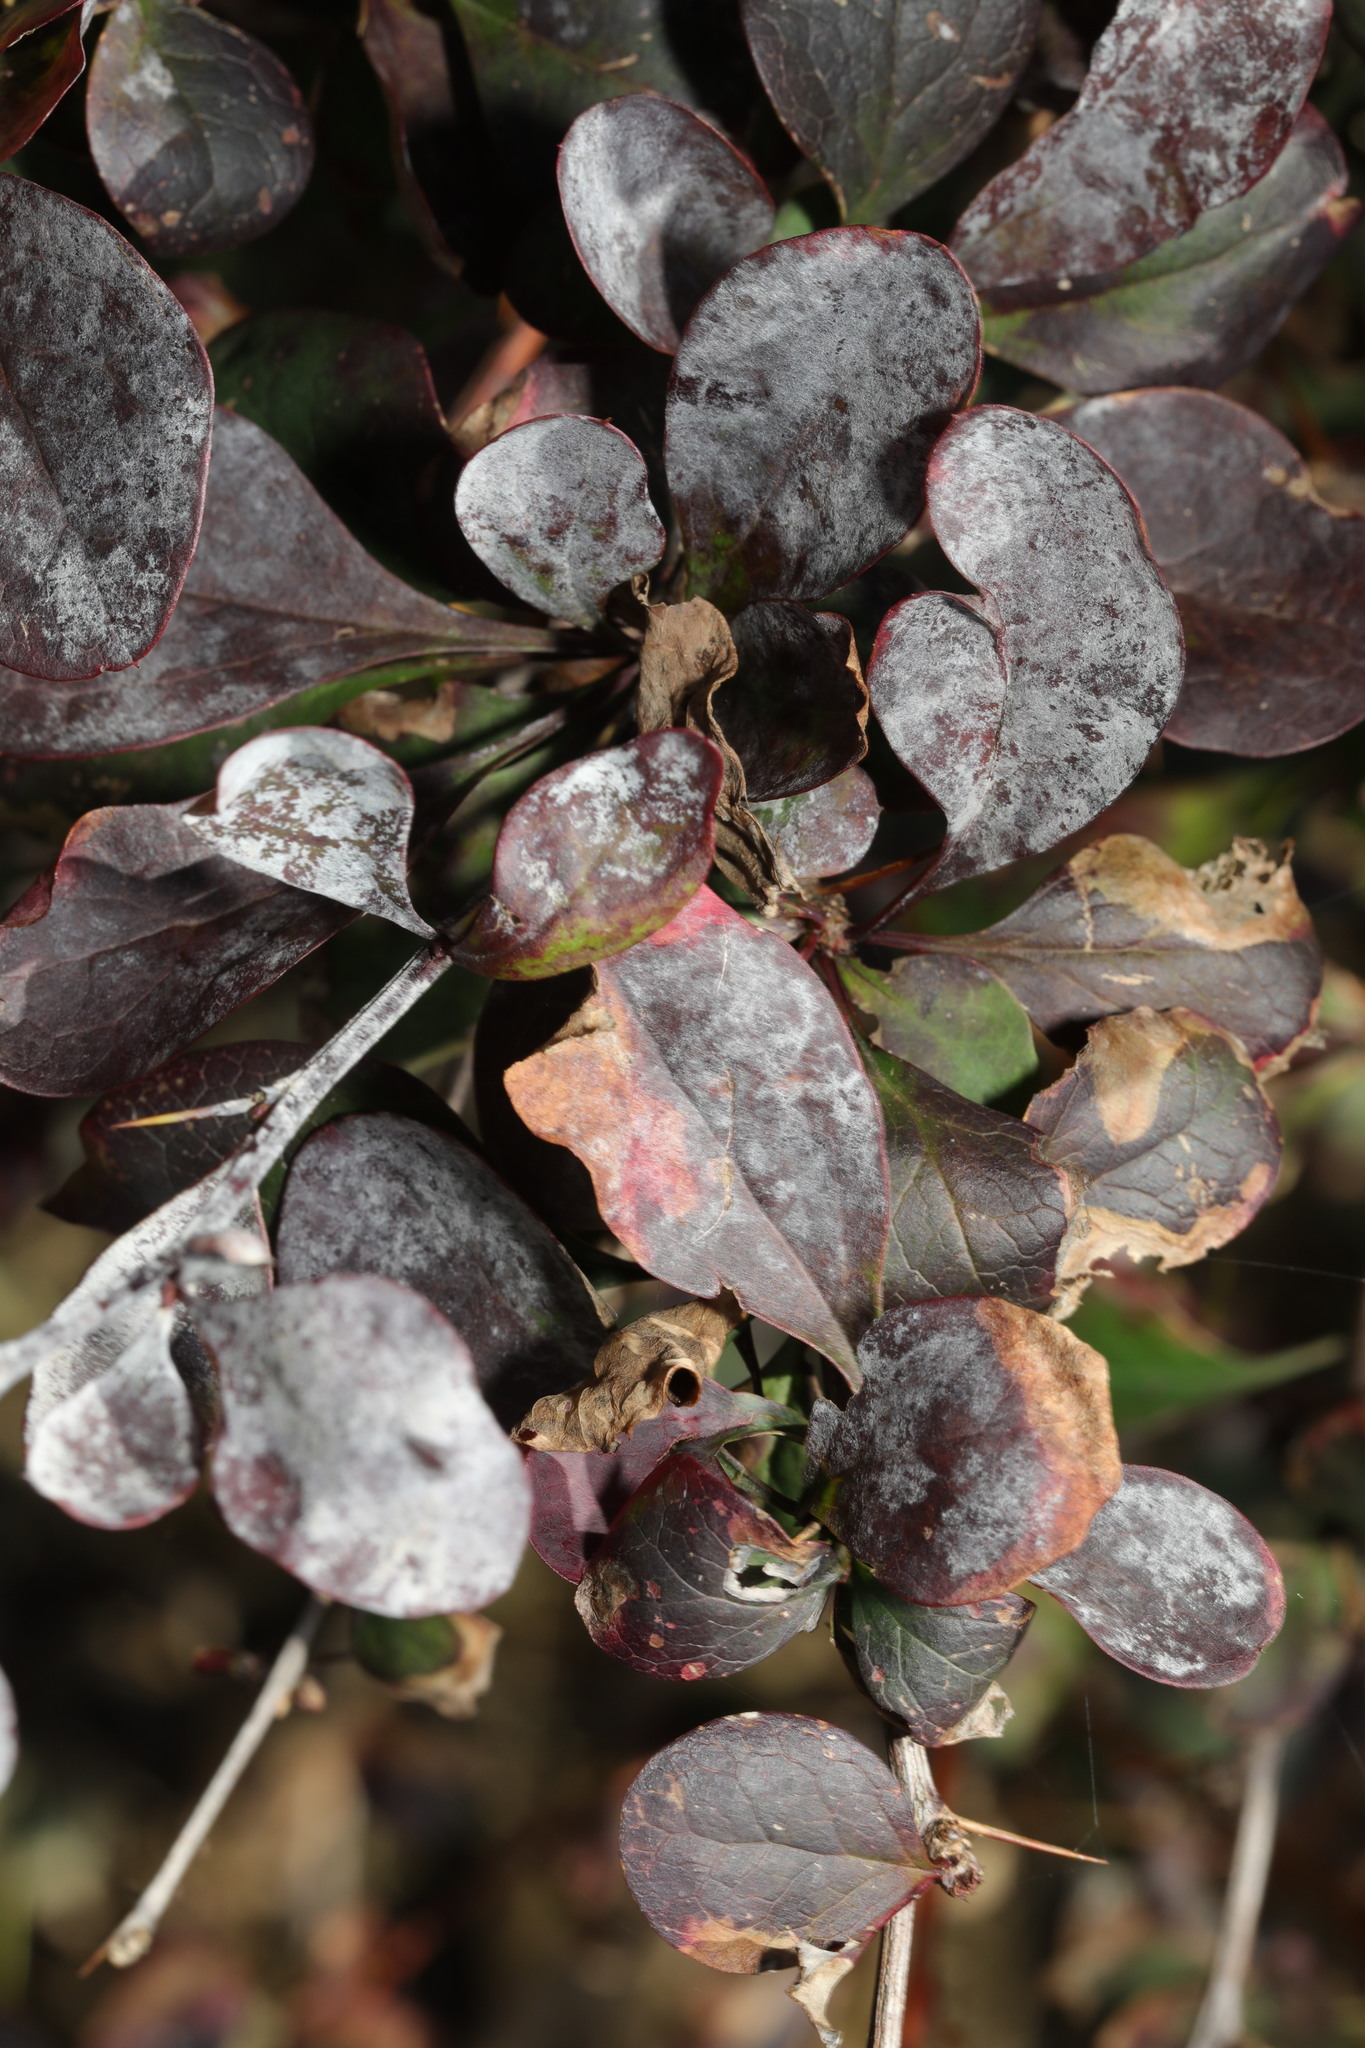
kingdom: Plantae
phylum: Tracheophyta
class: Magnoliopsida
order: Ranunculales
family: Berberidaceae
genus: Berberis
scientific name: Berberis thunbergii
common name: Japanese barberry
